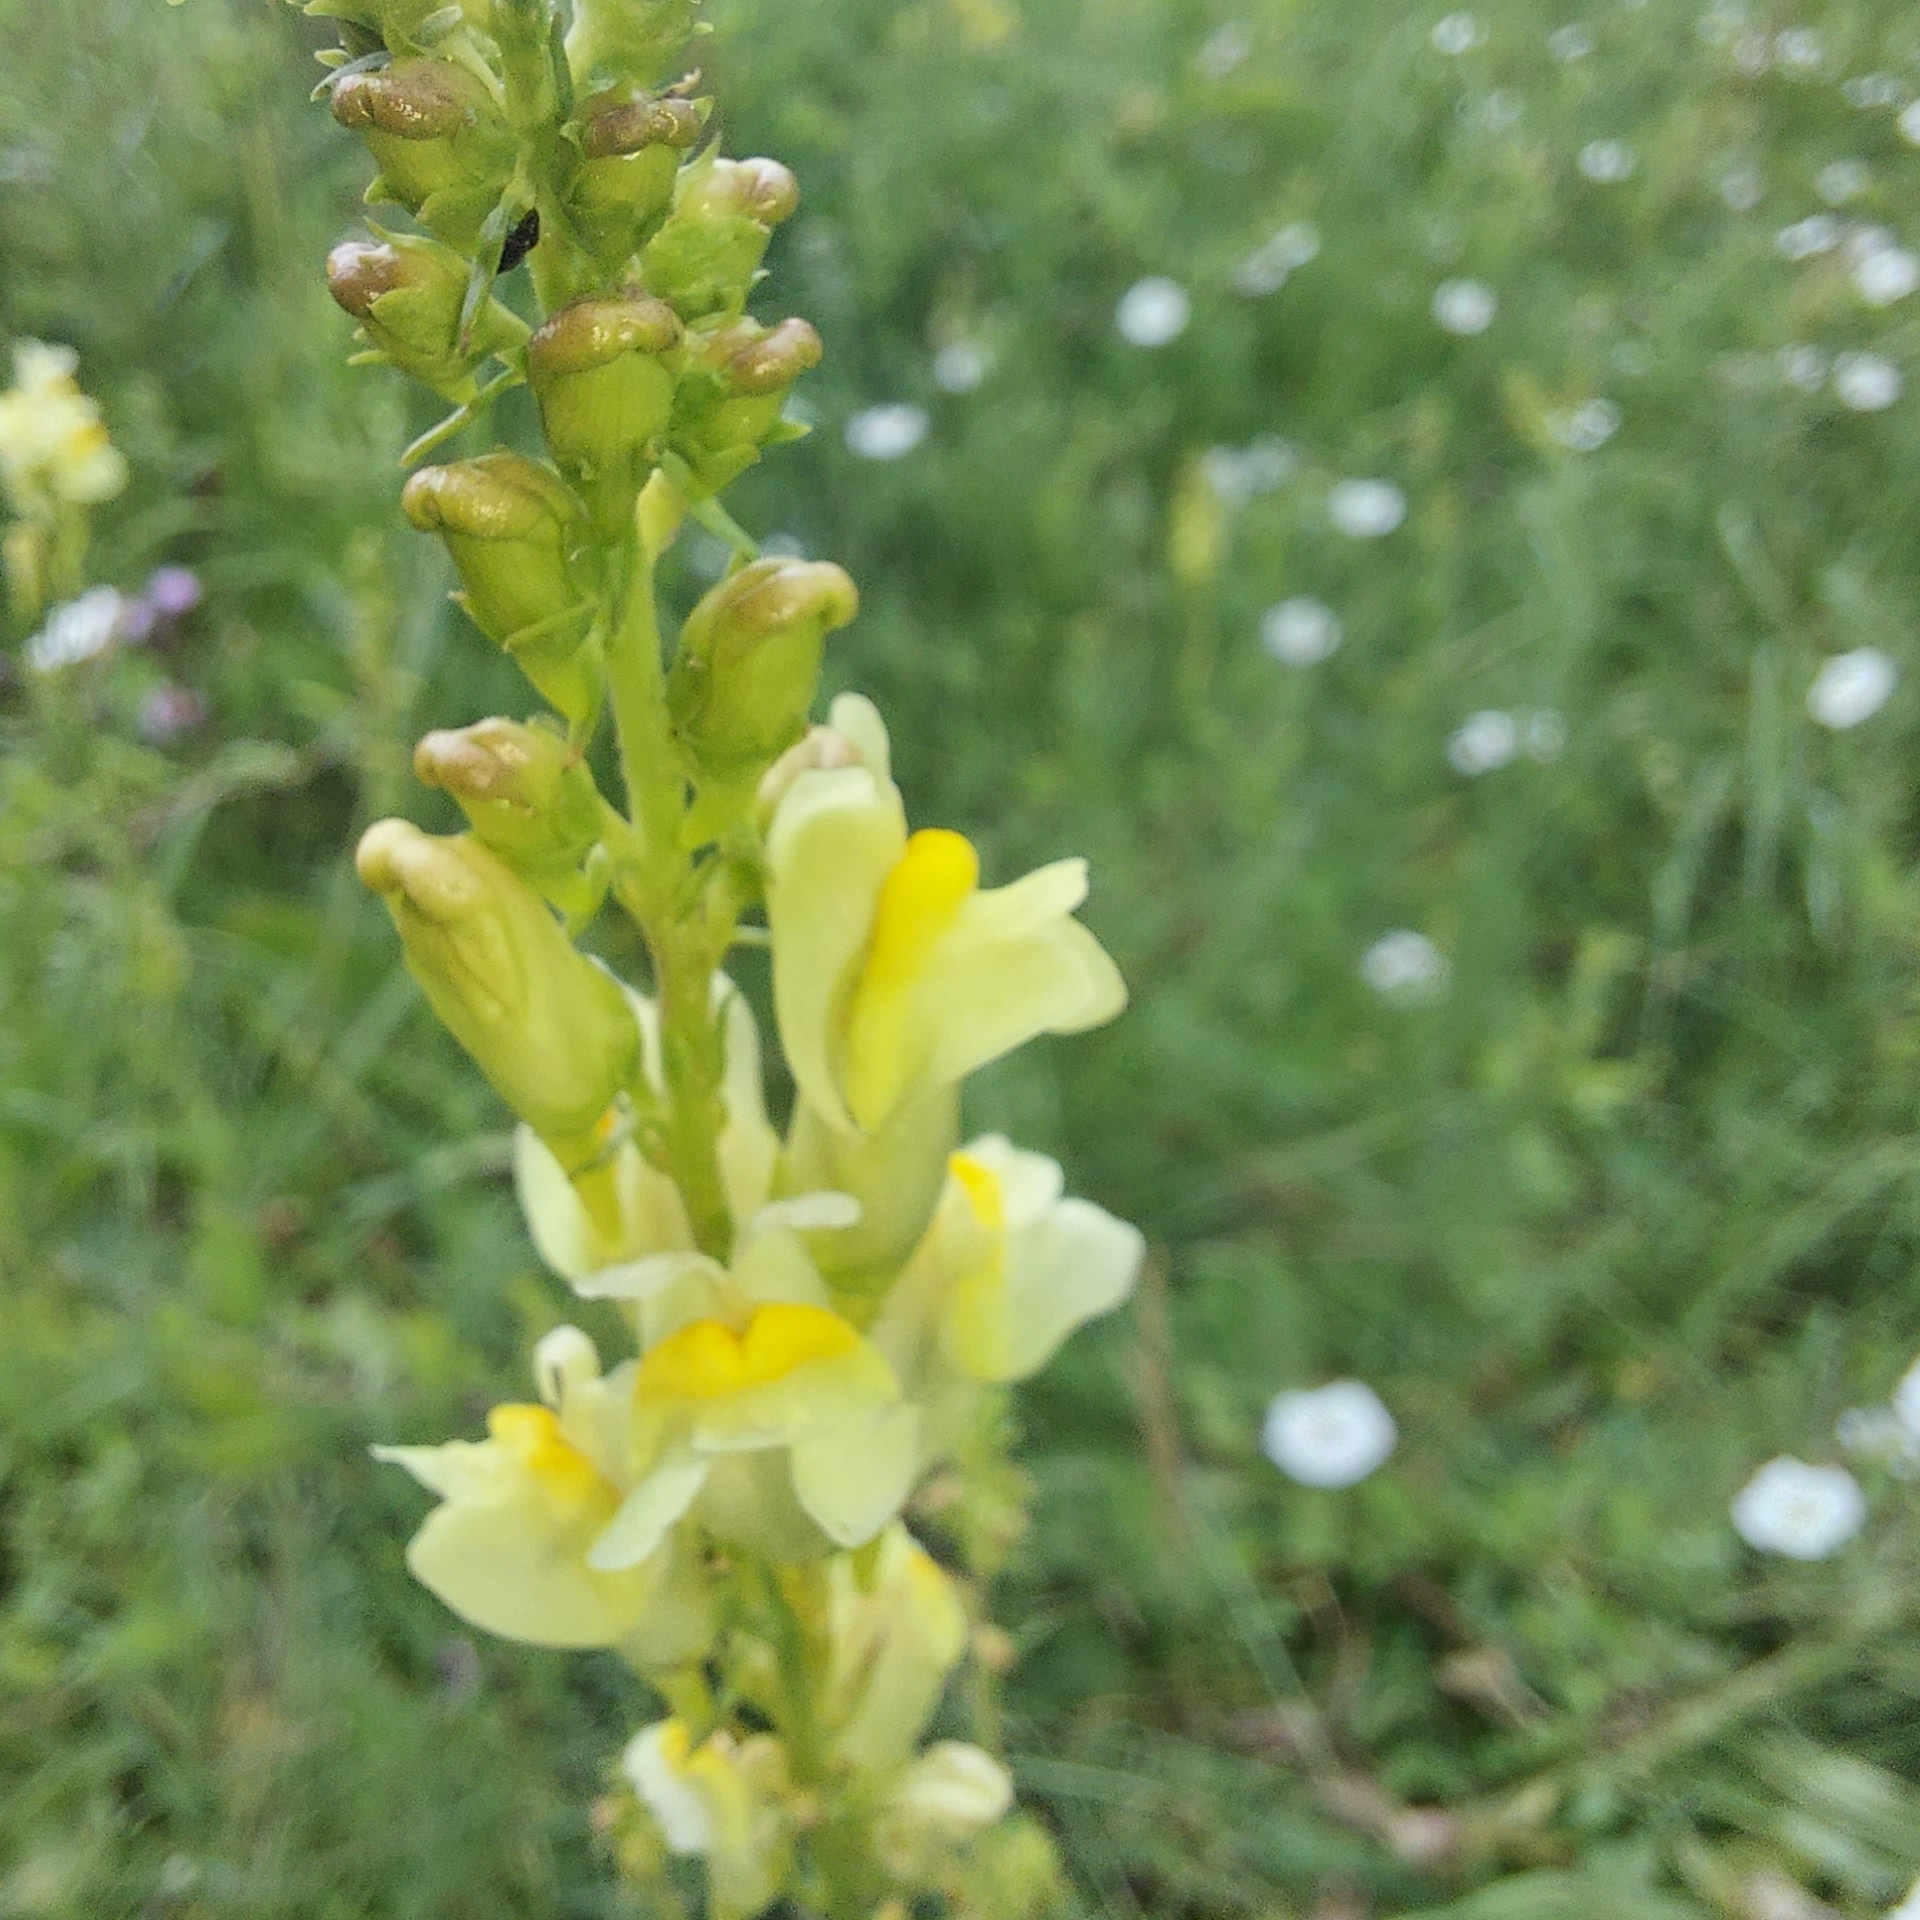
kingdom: Plantae
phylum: Tracheophyta
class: Magnoliopsida
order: Lamiales
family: Plantaginaceae
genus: Linaria
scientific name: Linaria vulgaris
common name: Butter and eggs
